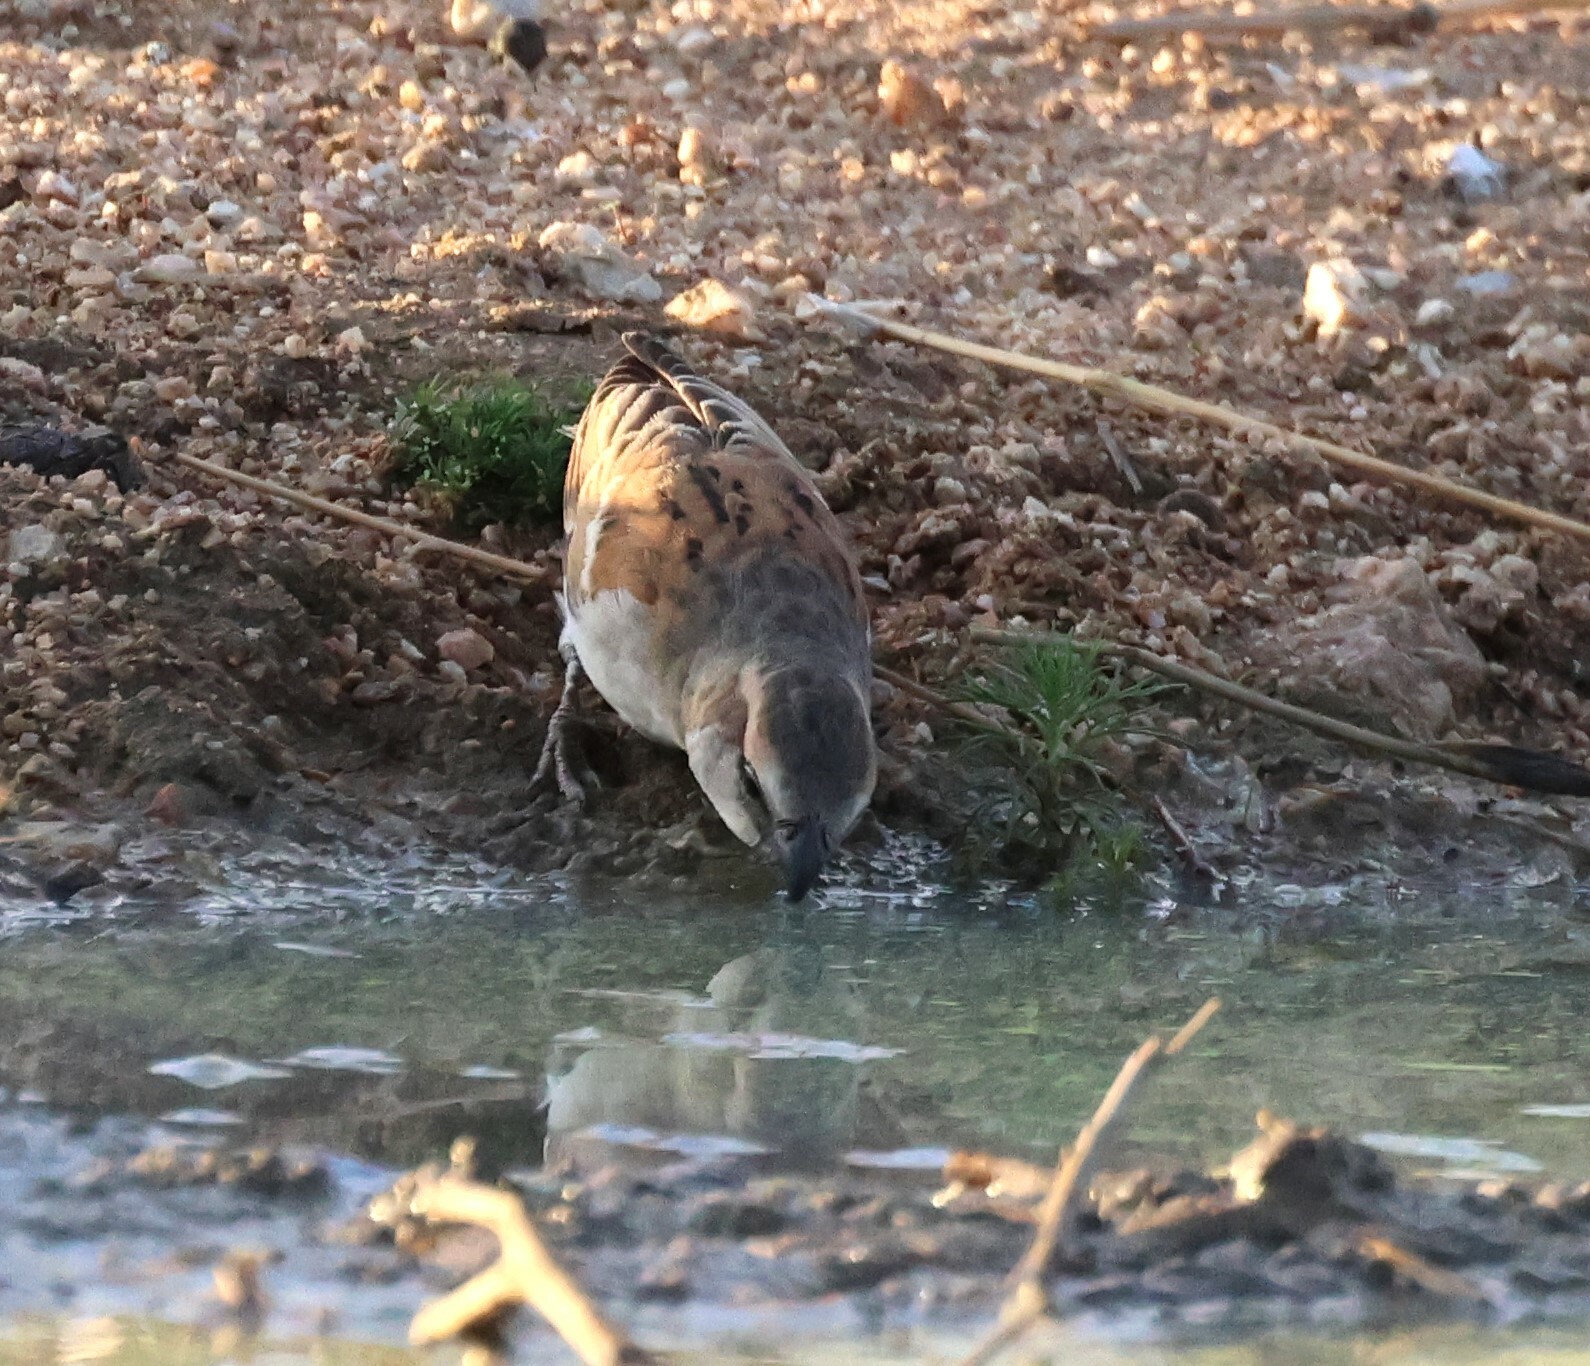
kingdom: Animalia
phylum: Chordata
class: Aves
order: Passeriformes
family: Passeridae
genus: Passer
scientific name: Passer motitensis
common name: Great sparrow
